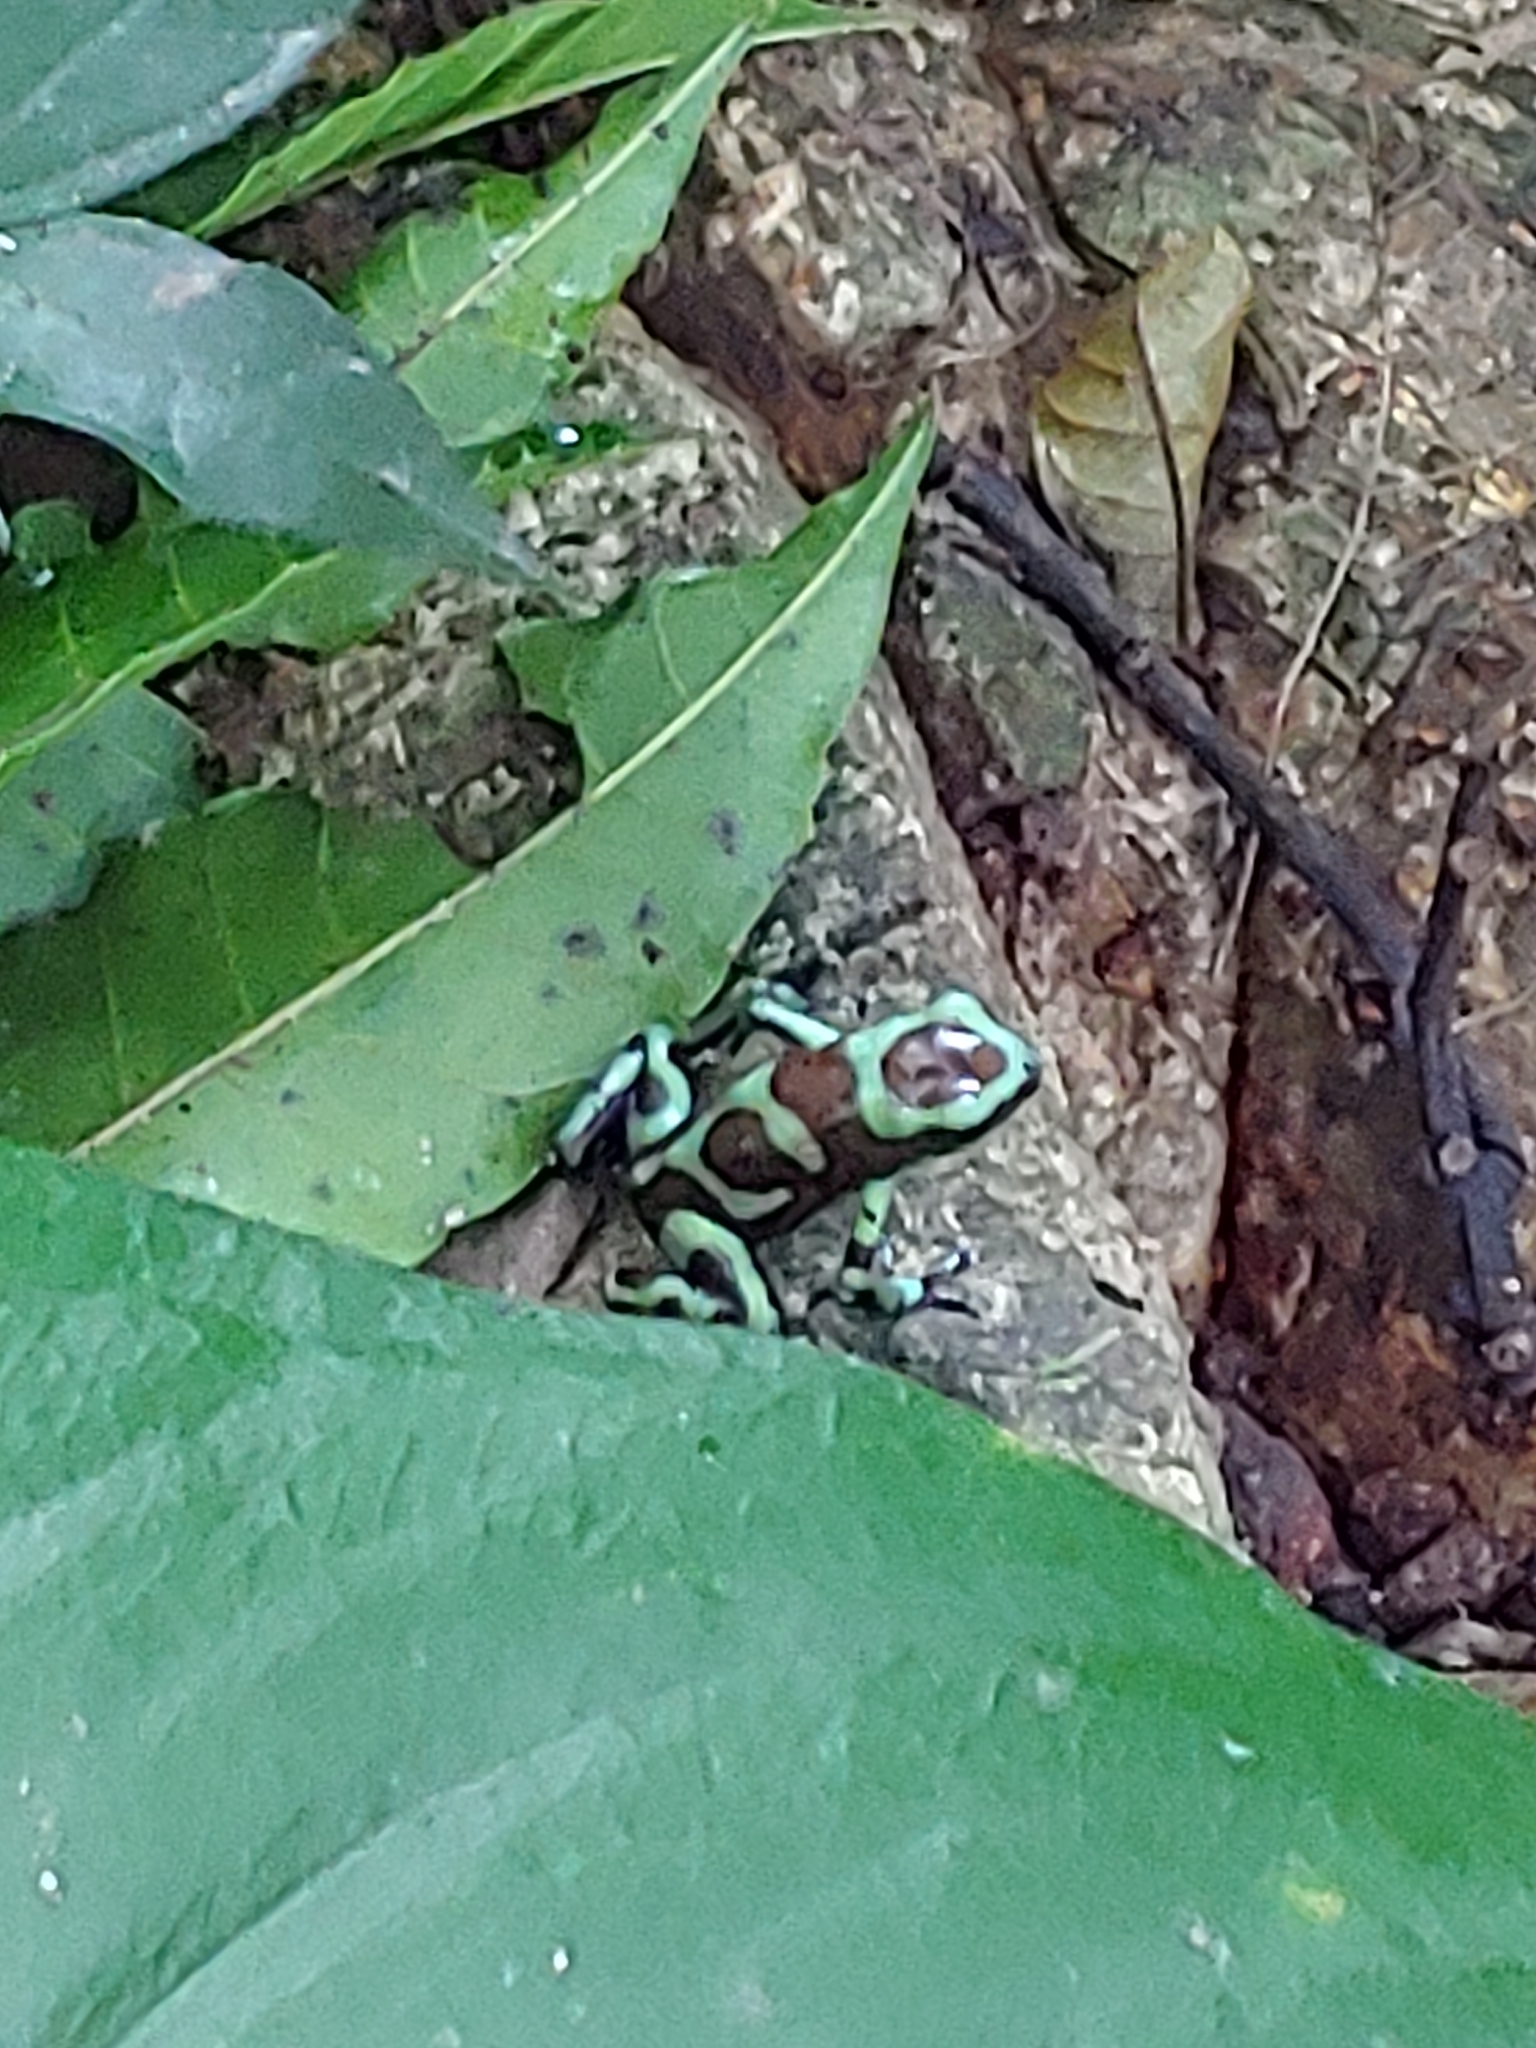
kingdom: Animalia
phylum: Chordata
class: Amphibia
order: Anura
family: Dendrobatidae
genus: Dendrobates
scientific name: Dendrobates auratus
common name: Green and black poison dart frog
